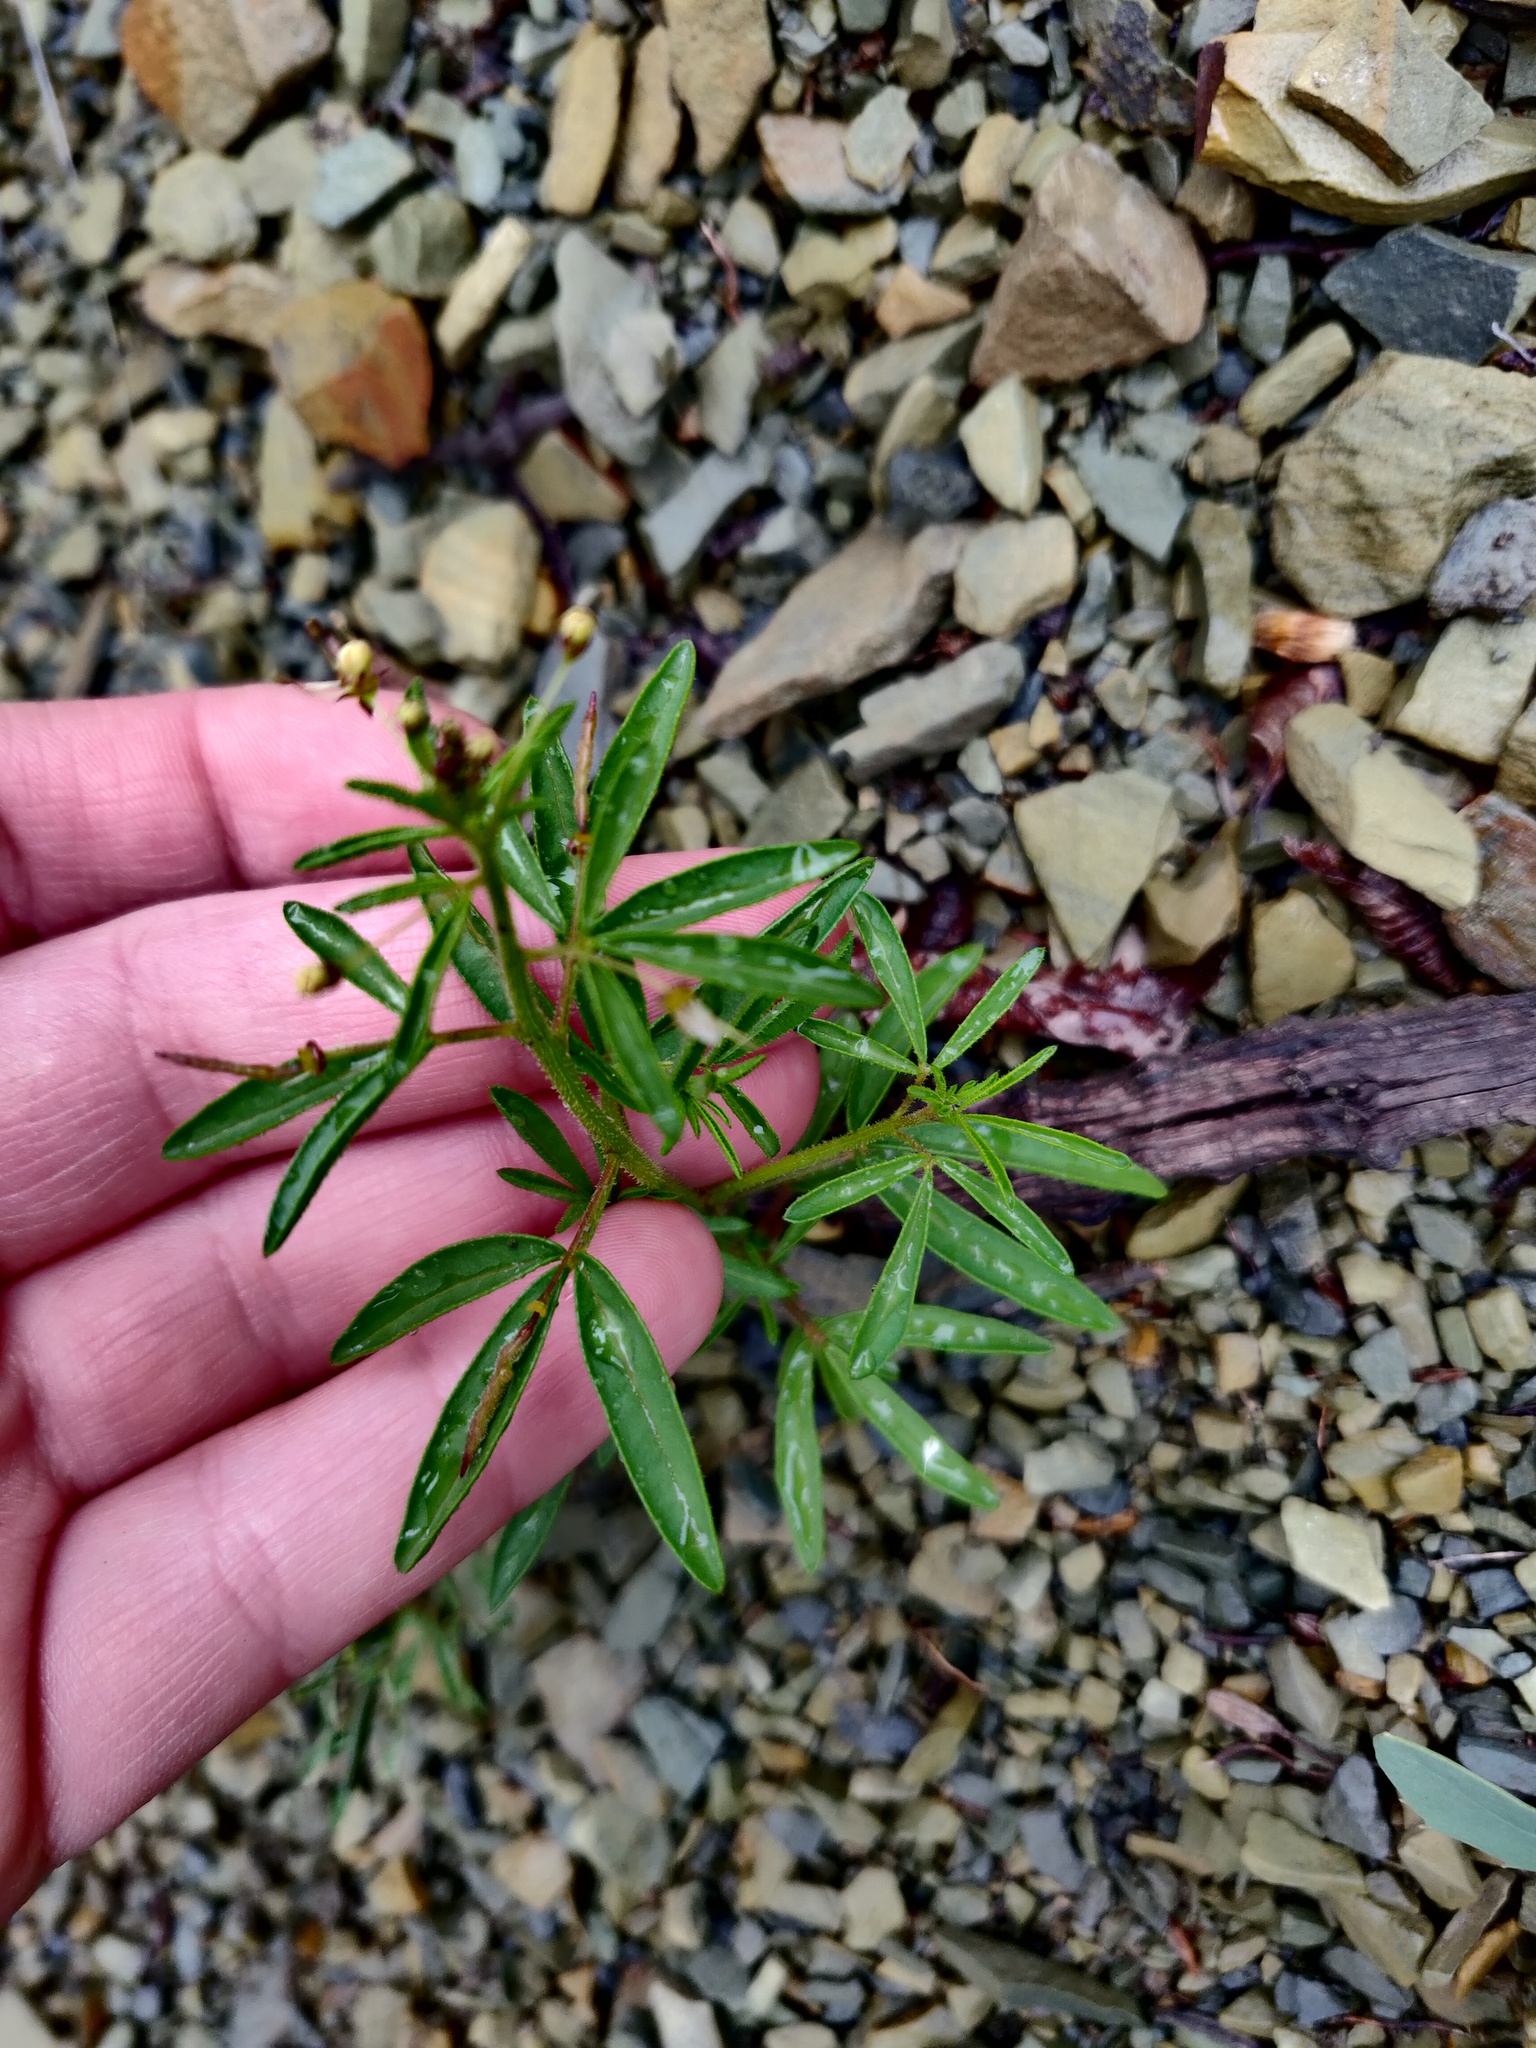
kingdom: Plantae
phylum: Tracheophyta
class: Magnoliopsida
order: Brassicales
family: Cleomaceae
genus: Cleome
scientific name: Cleome iberica
